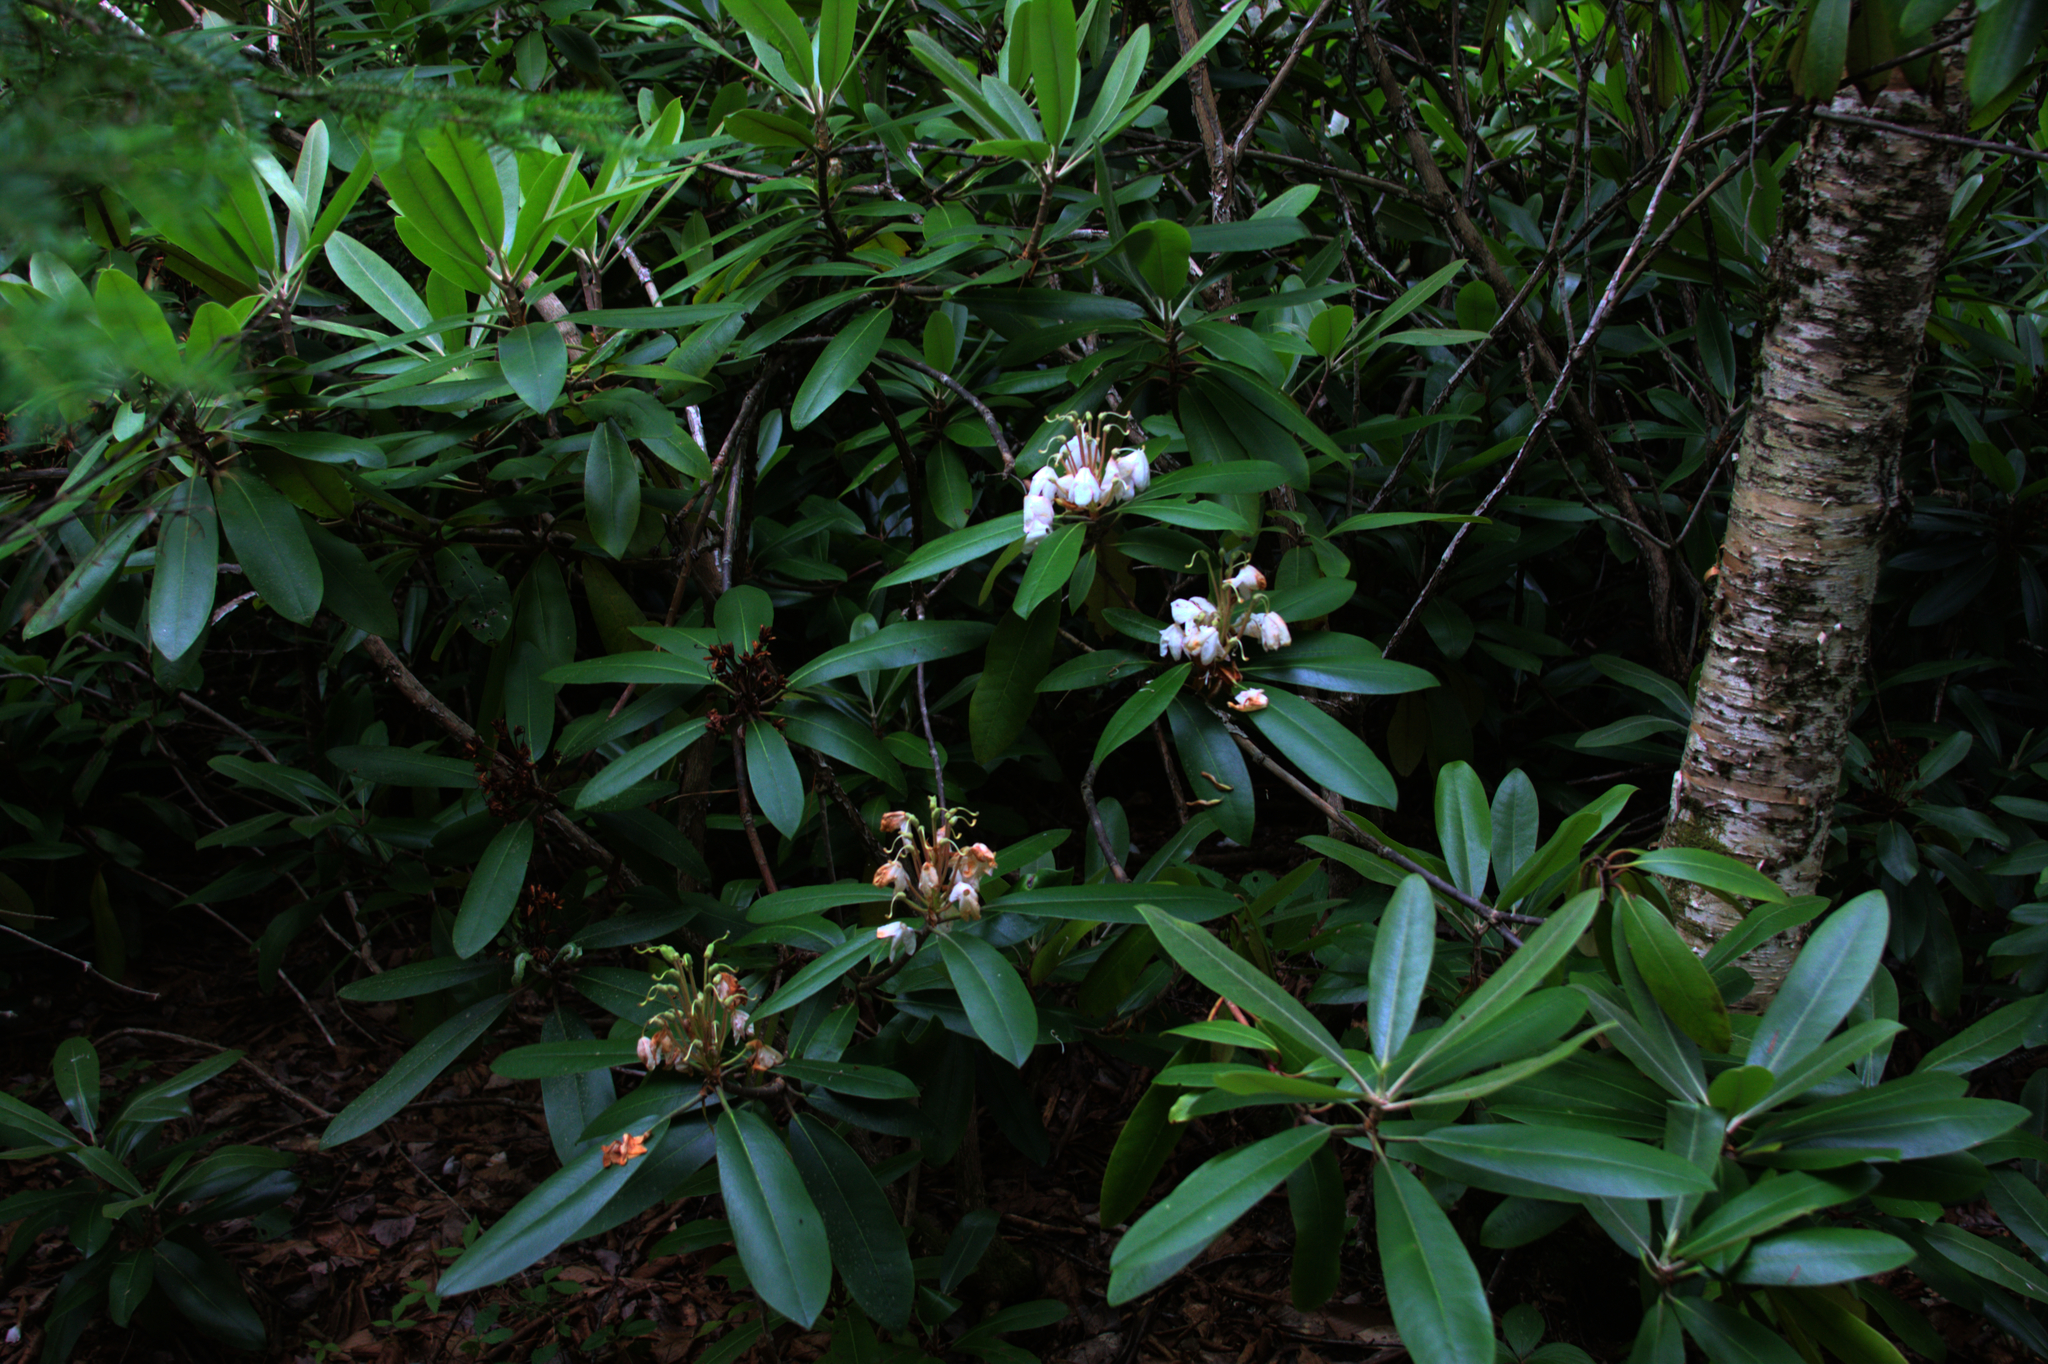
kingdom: Plantae
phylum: Tracheophyta
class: Magnoliopsida
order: Ericales
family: Ericaceae
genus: Rhododendron
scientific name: Rhododendron maximum
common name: Great rhododendron
